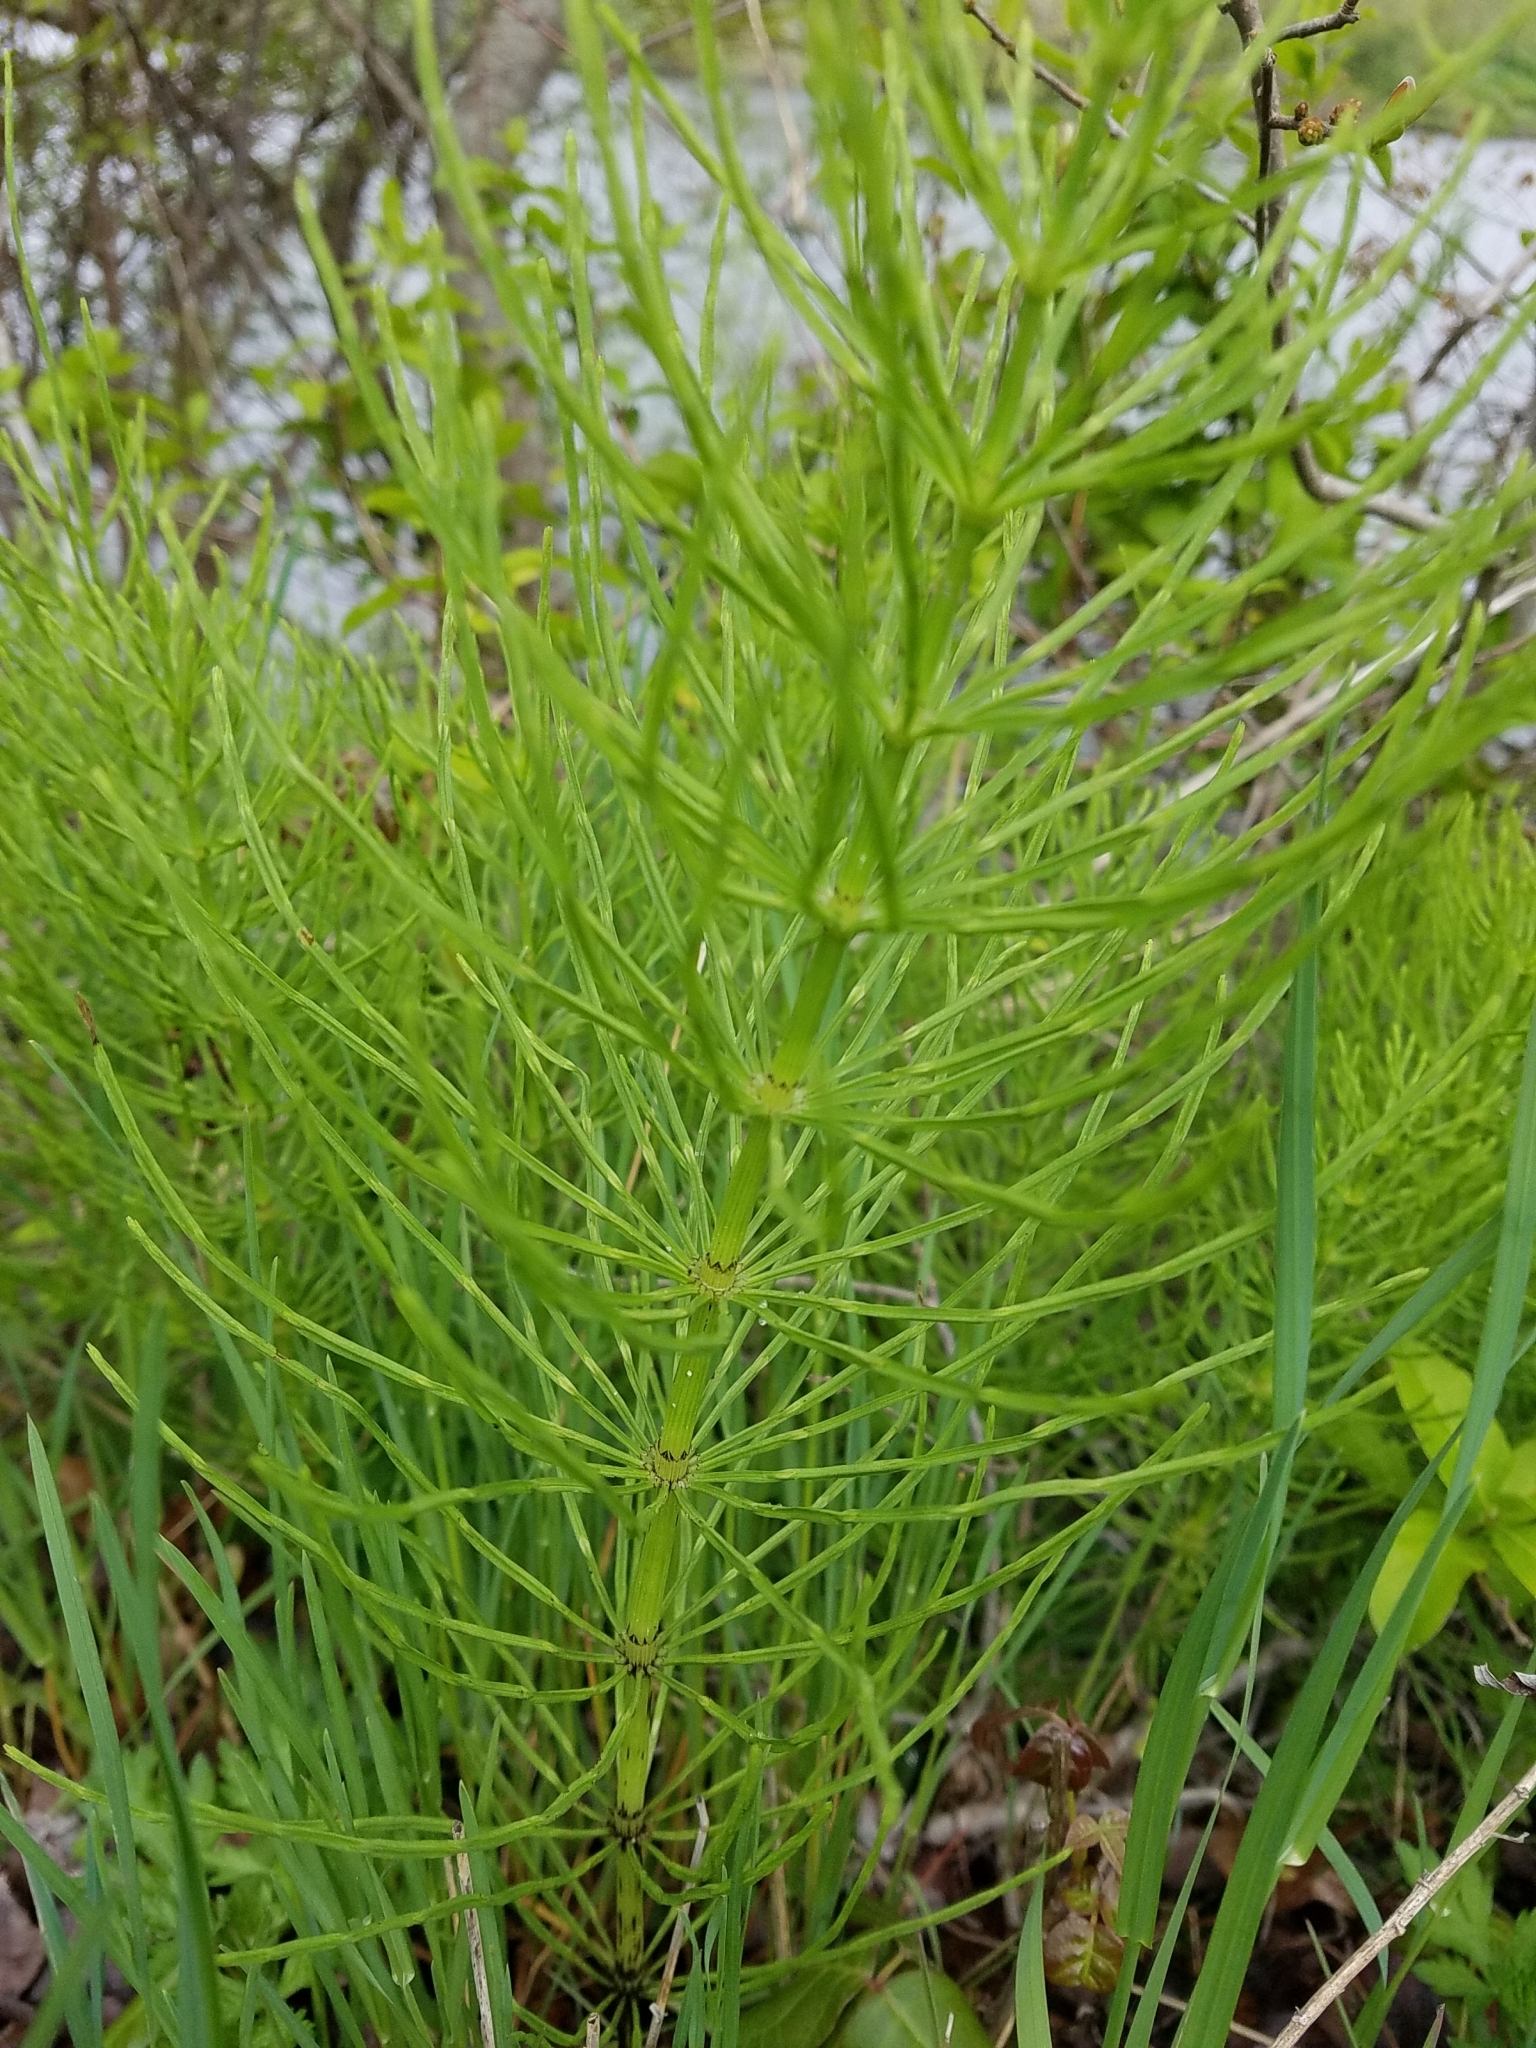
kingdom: Plantae
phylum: Tracheophyta
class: Polypodiopsida
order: Equisetales
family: Equisetaceae
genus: Equisetum
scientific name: Equisetum arvense
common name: Field horsetail
